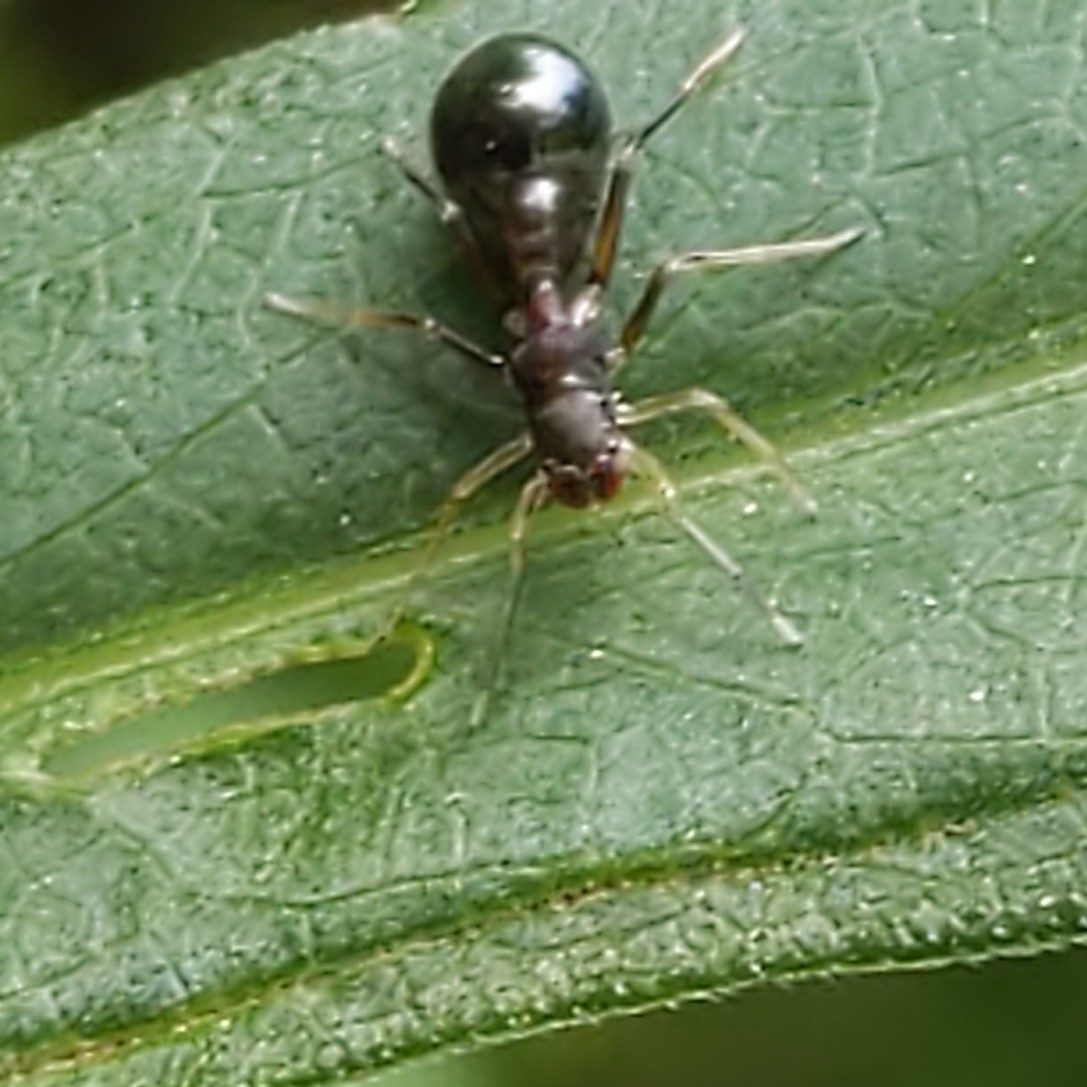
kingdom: Animalia
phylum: Arthropoda
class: Arachnida
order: Araneae
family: Salticidae
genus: Synemosyna
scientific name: Synemosyna formica
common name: Slender ant-mimic jumping spider
